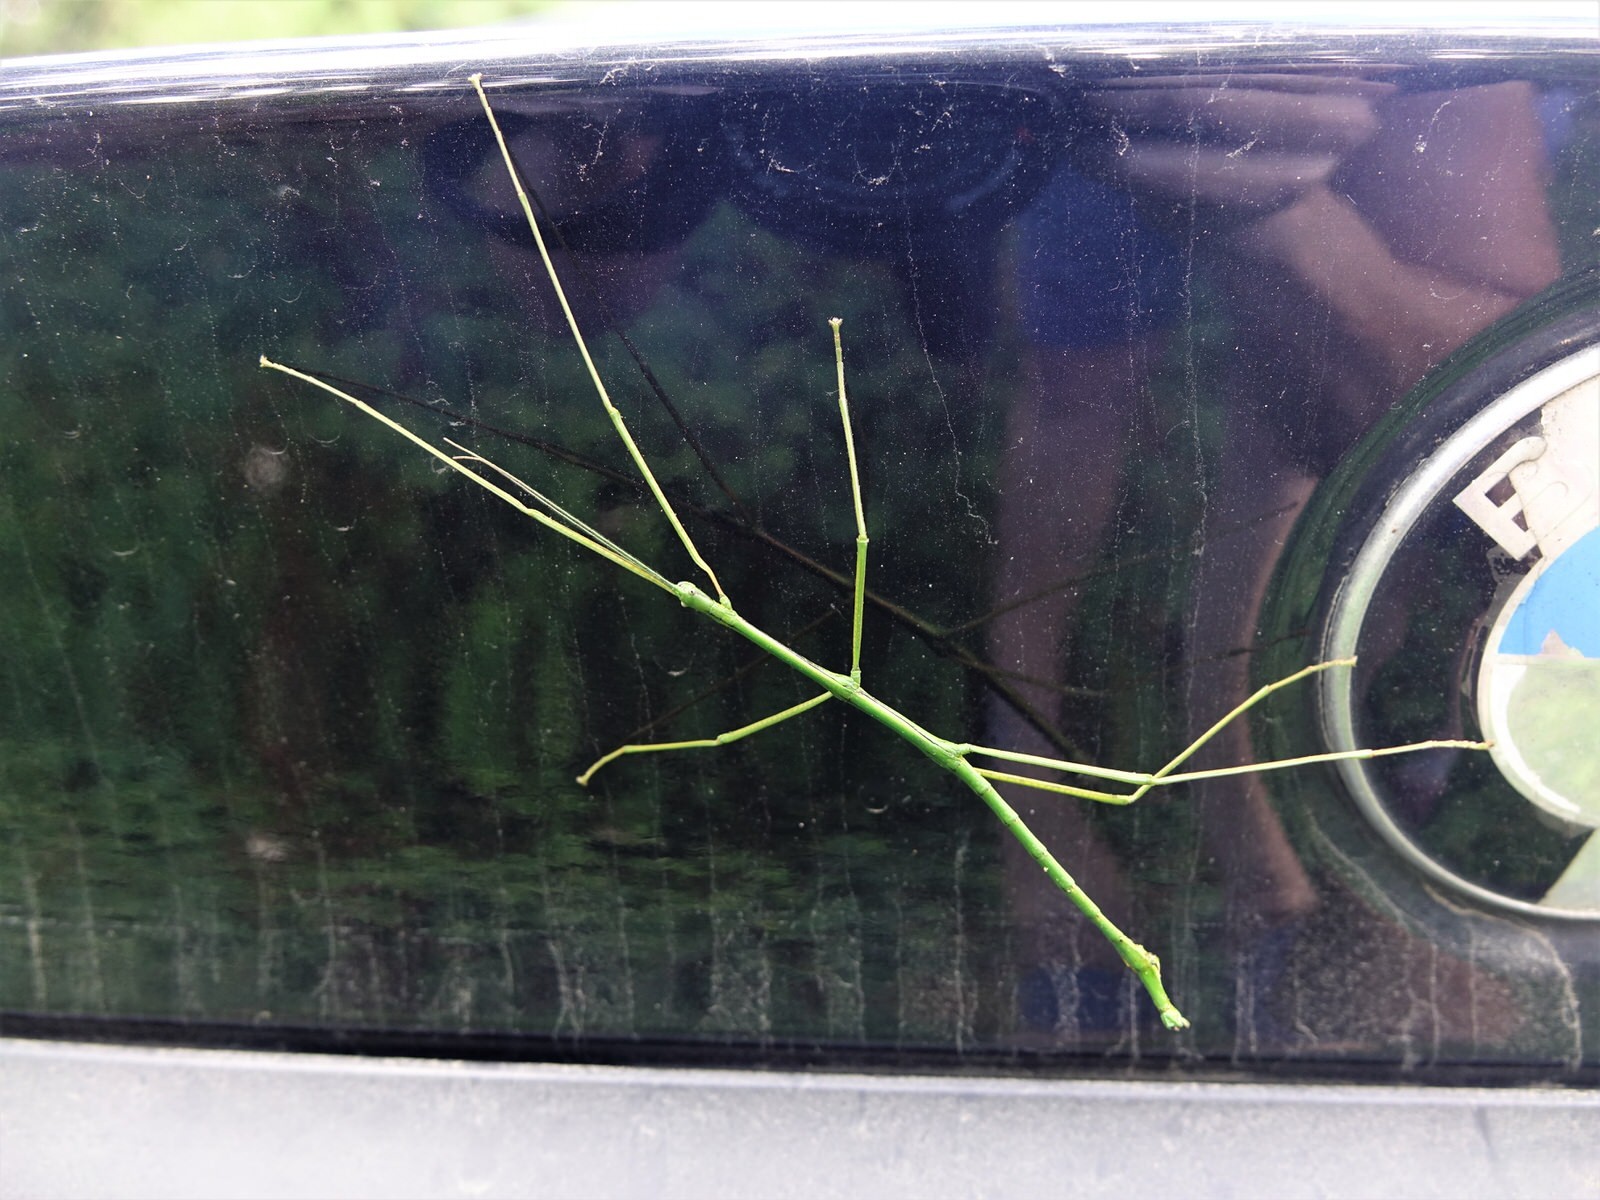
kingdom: Animalia
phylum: Arthropoda
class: Insecta
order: Phasmida
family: Phasmatidae
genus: Clitarchus
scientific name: Clitarchus hookeri
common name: Smooth stick insect
